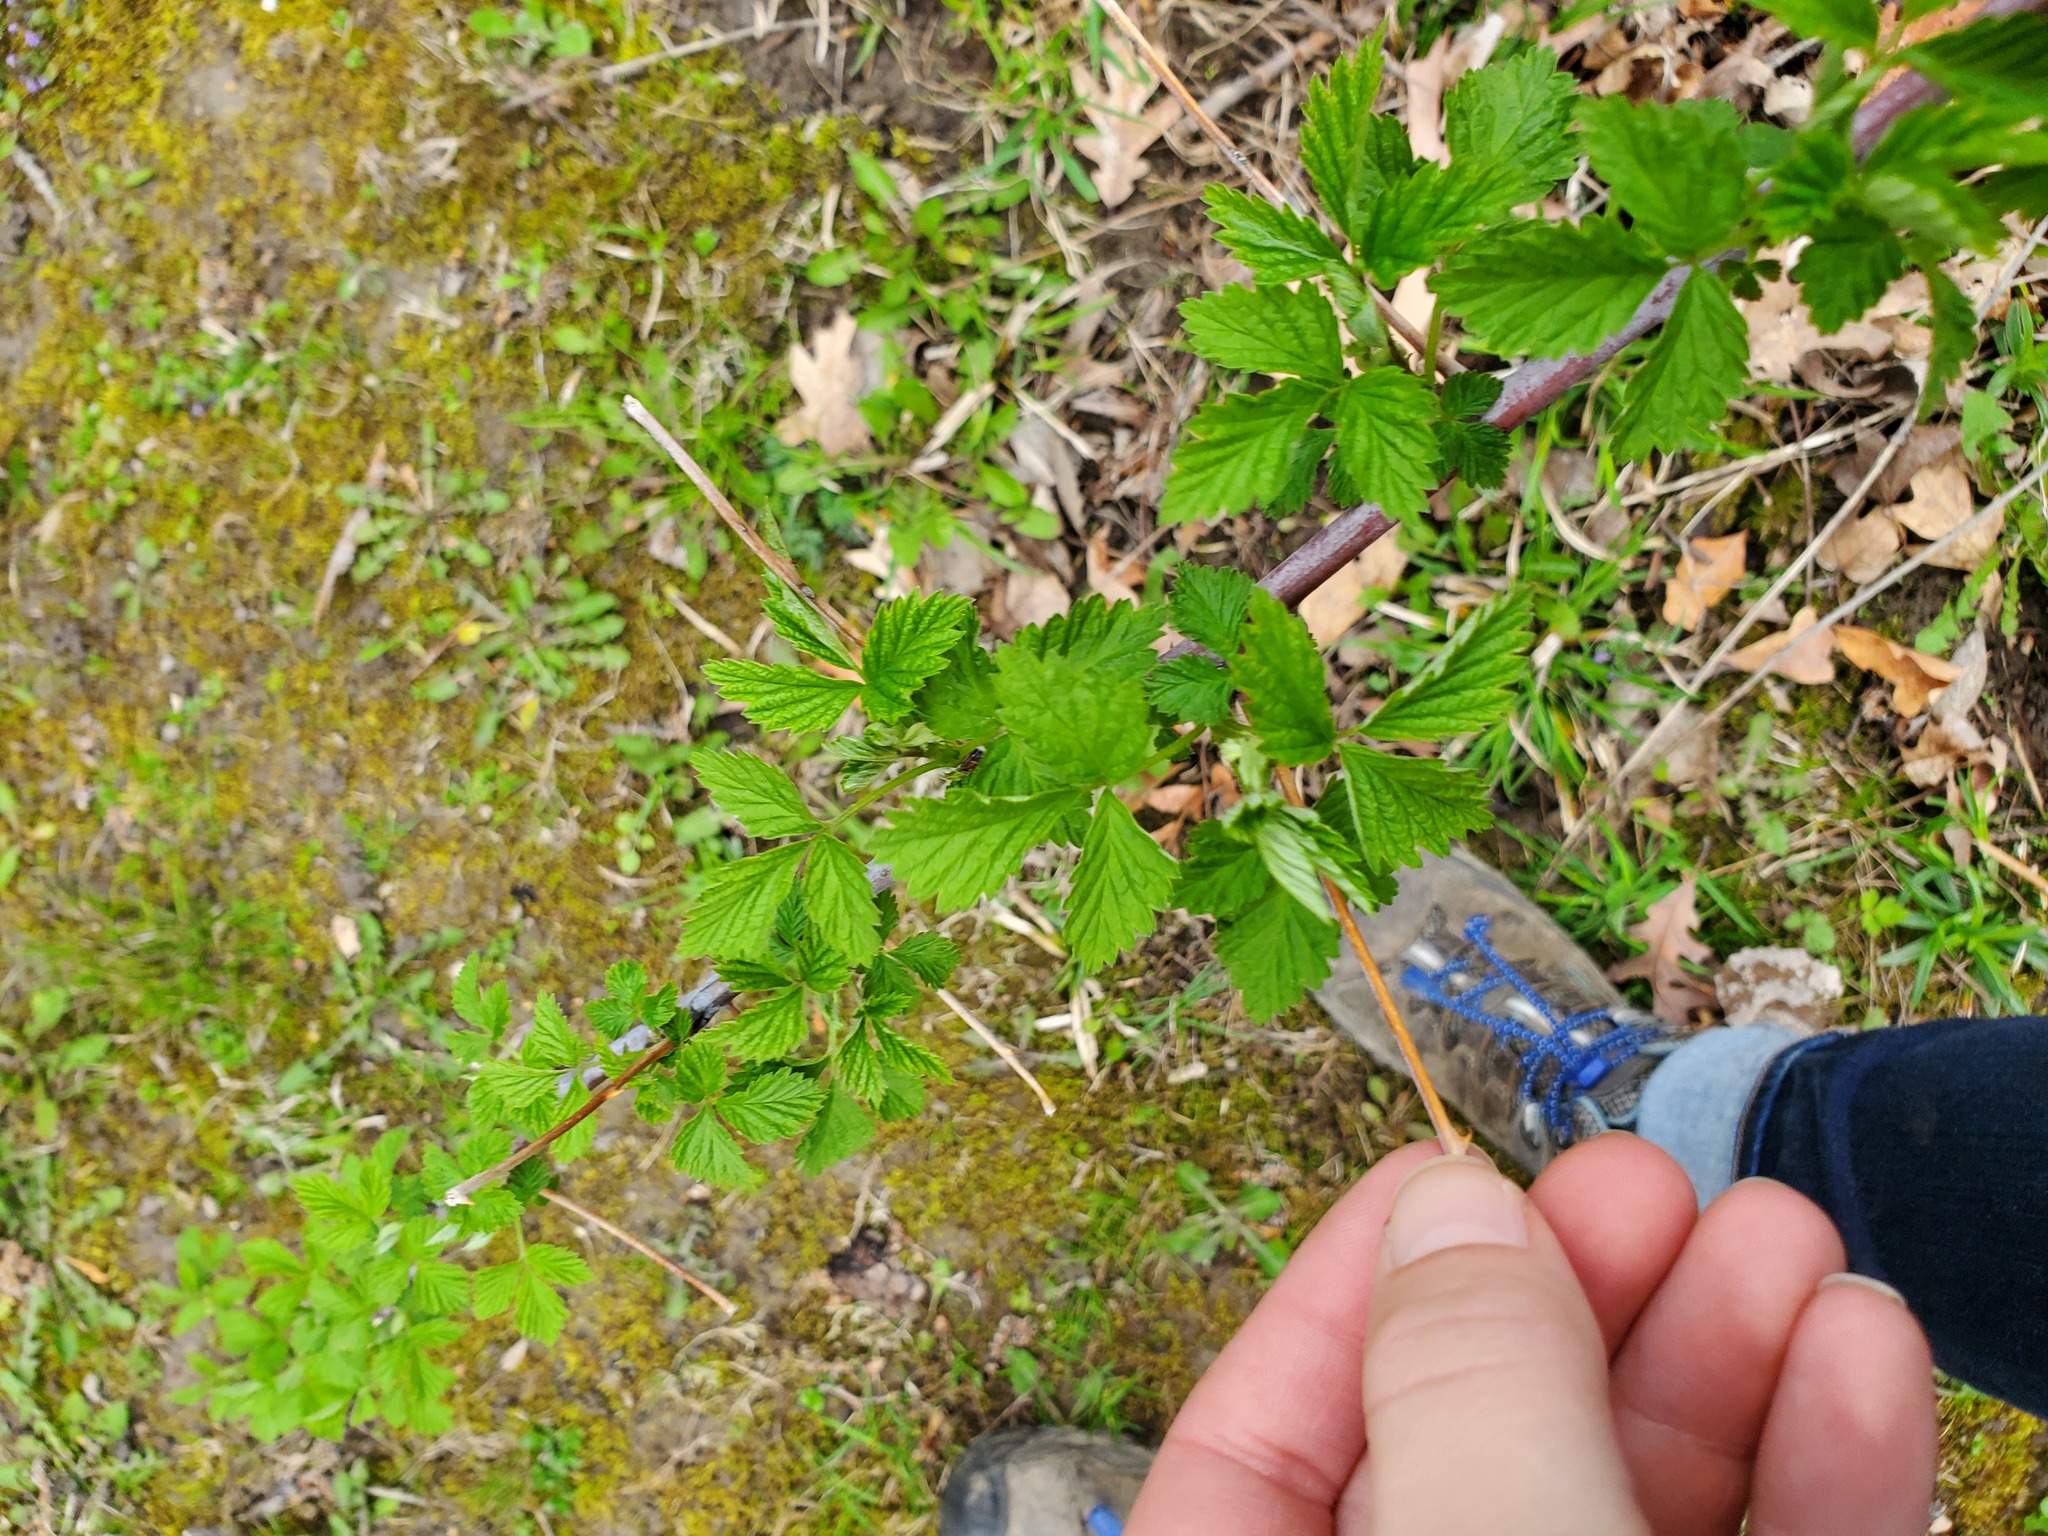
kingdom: Plantae
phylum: Tracheophyta
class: Magnoliopsida
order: Rosales
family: Rosaceae
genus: Rubus
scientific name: Rubus occidentalis
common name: Black raspberry
